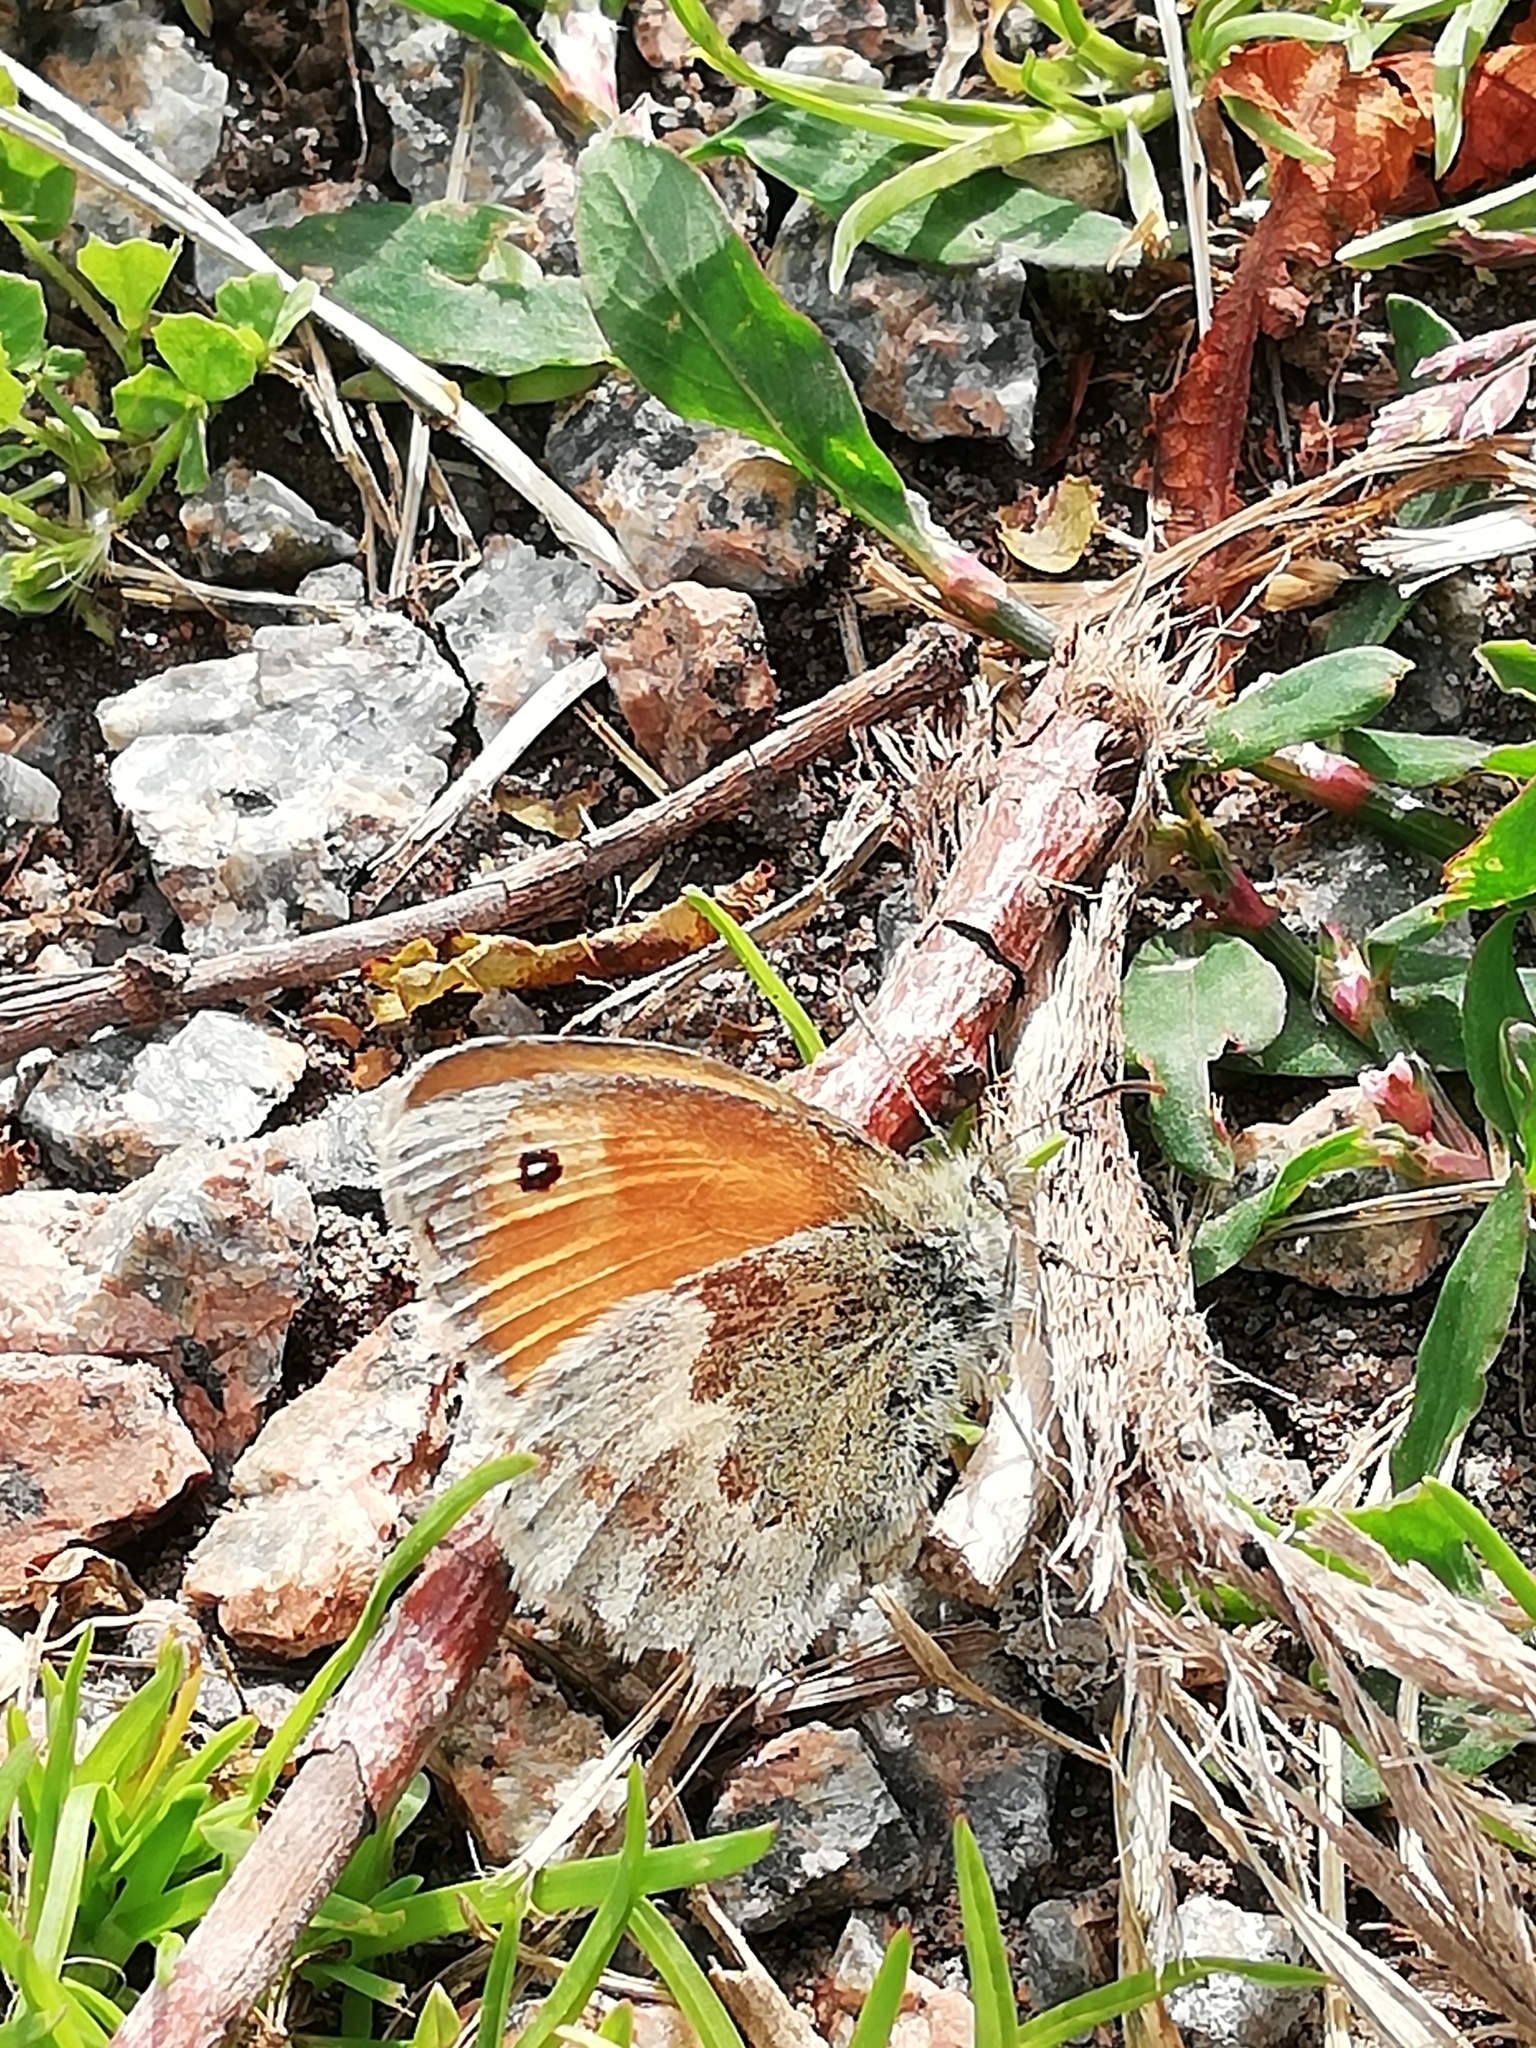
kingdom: Animalia
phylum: Arthropoda
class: Insecta
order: Lepidoptera
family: Nymphalidae
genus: Coenonympha
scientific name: Coenonympha pamphilus
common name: Small heath
